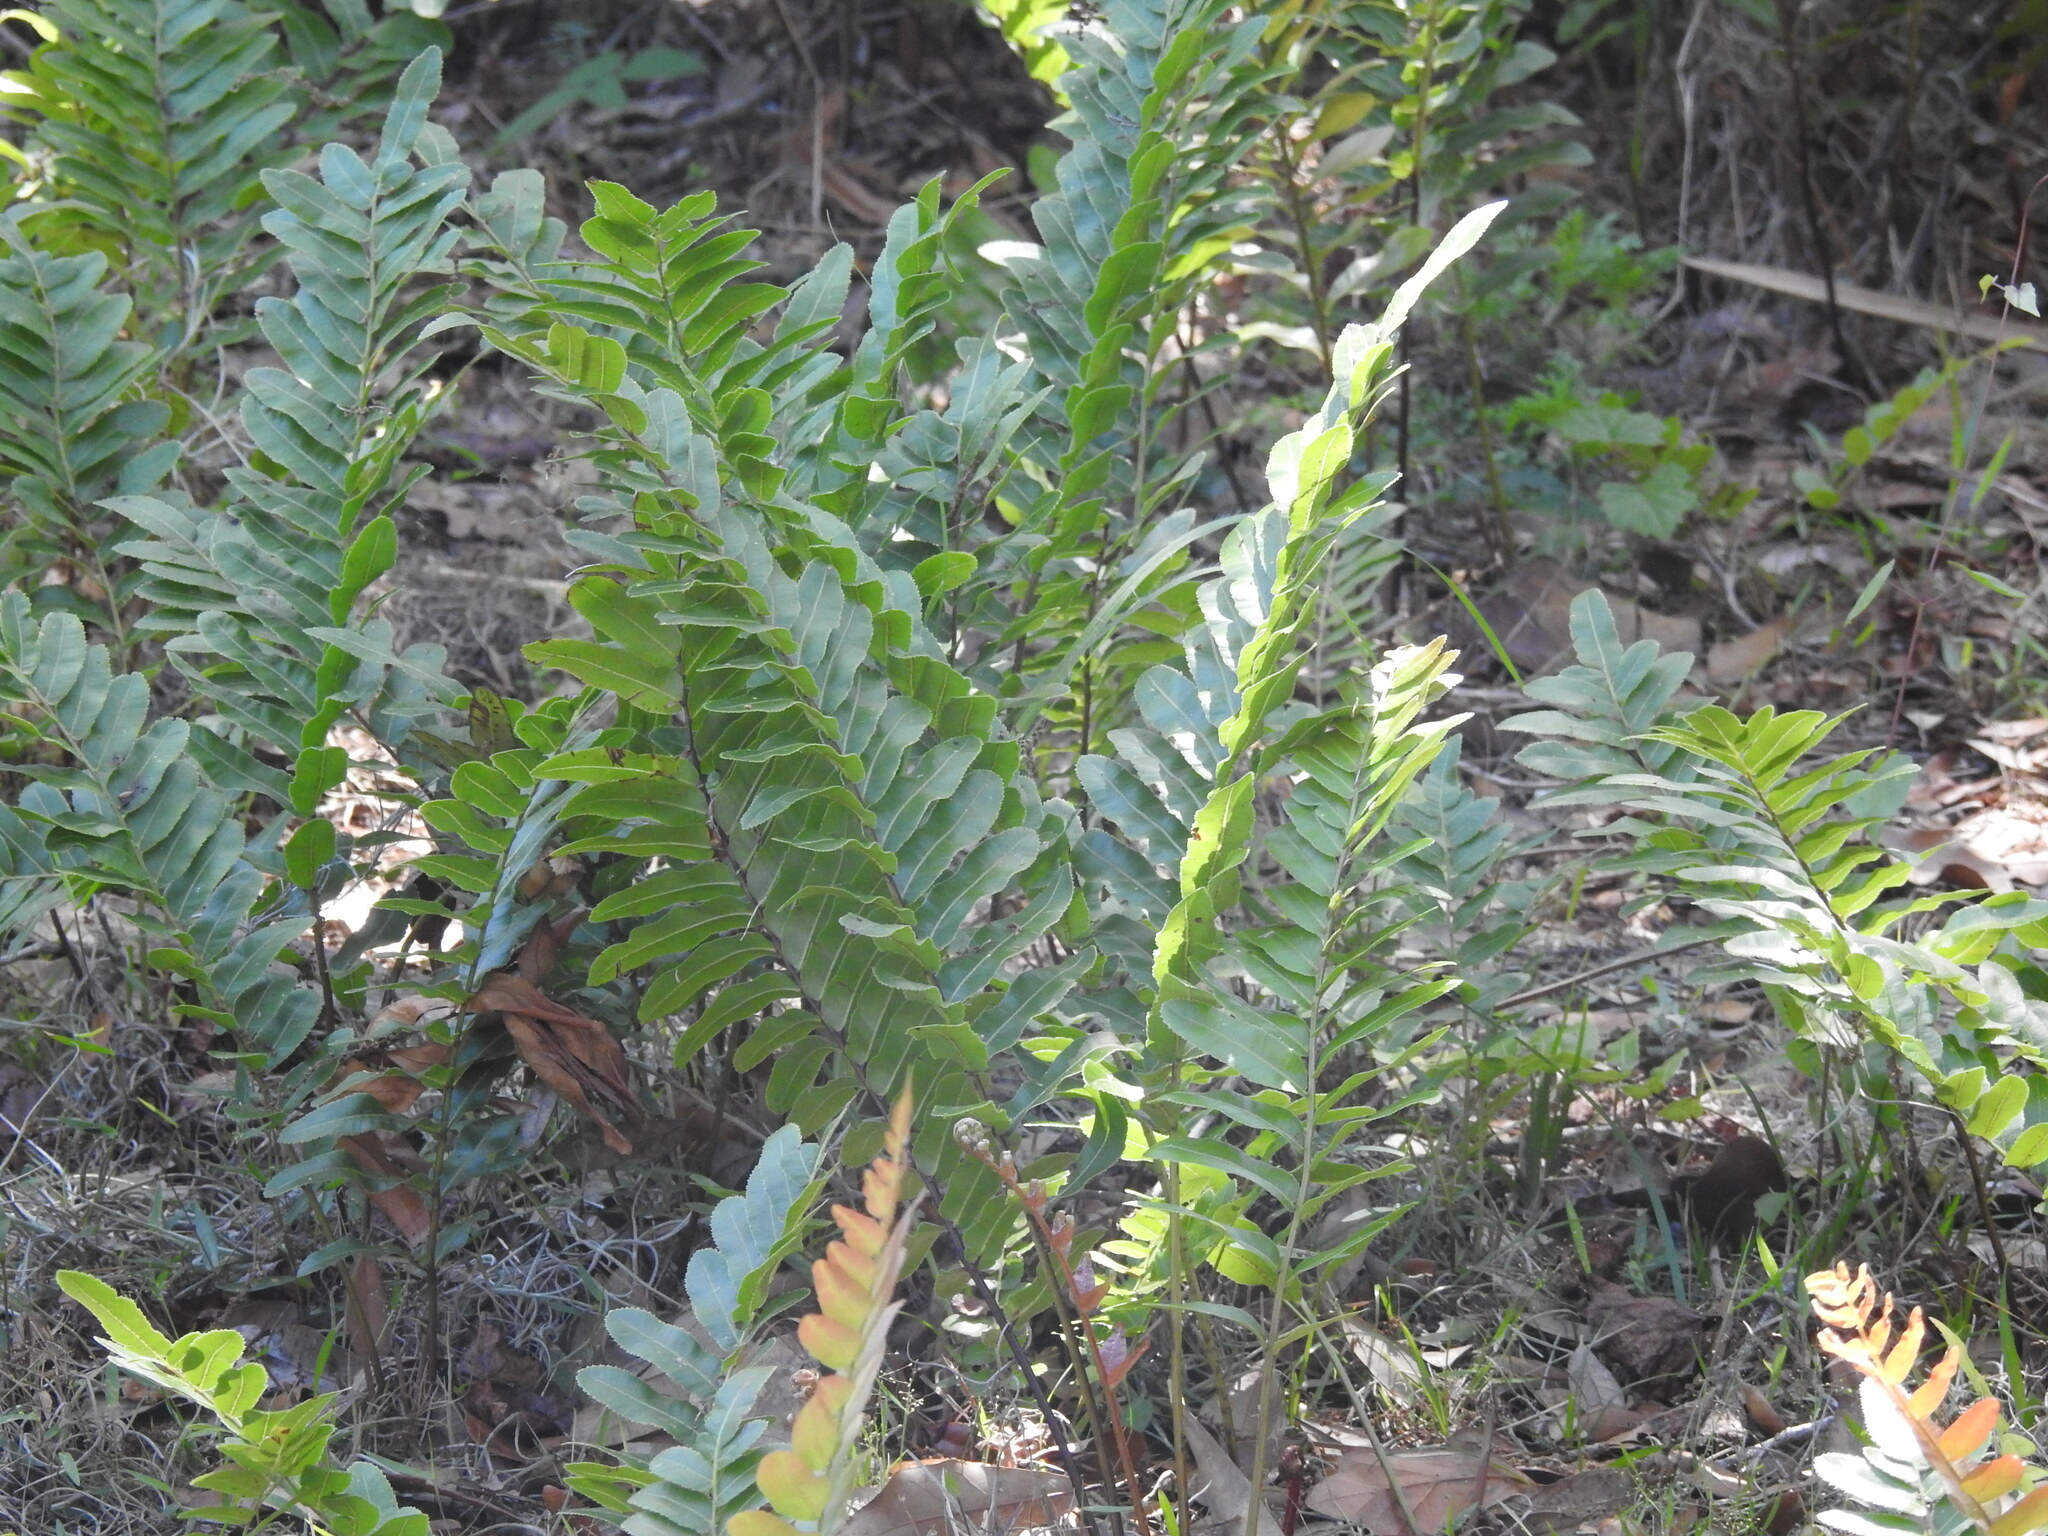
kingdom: Plantae
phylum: Tracheophyta
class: Polypodiopsida
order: Polypodiales
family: Blechnaceae
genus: Telmatoblechnum
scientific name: Telmatoblechnum serrulatum
